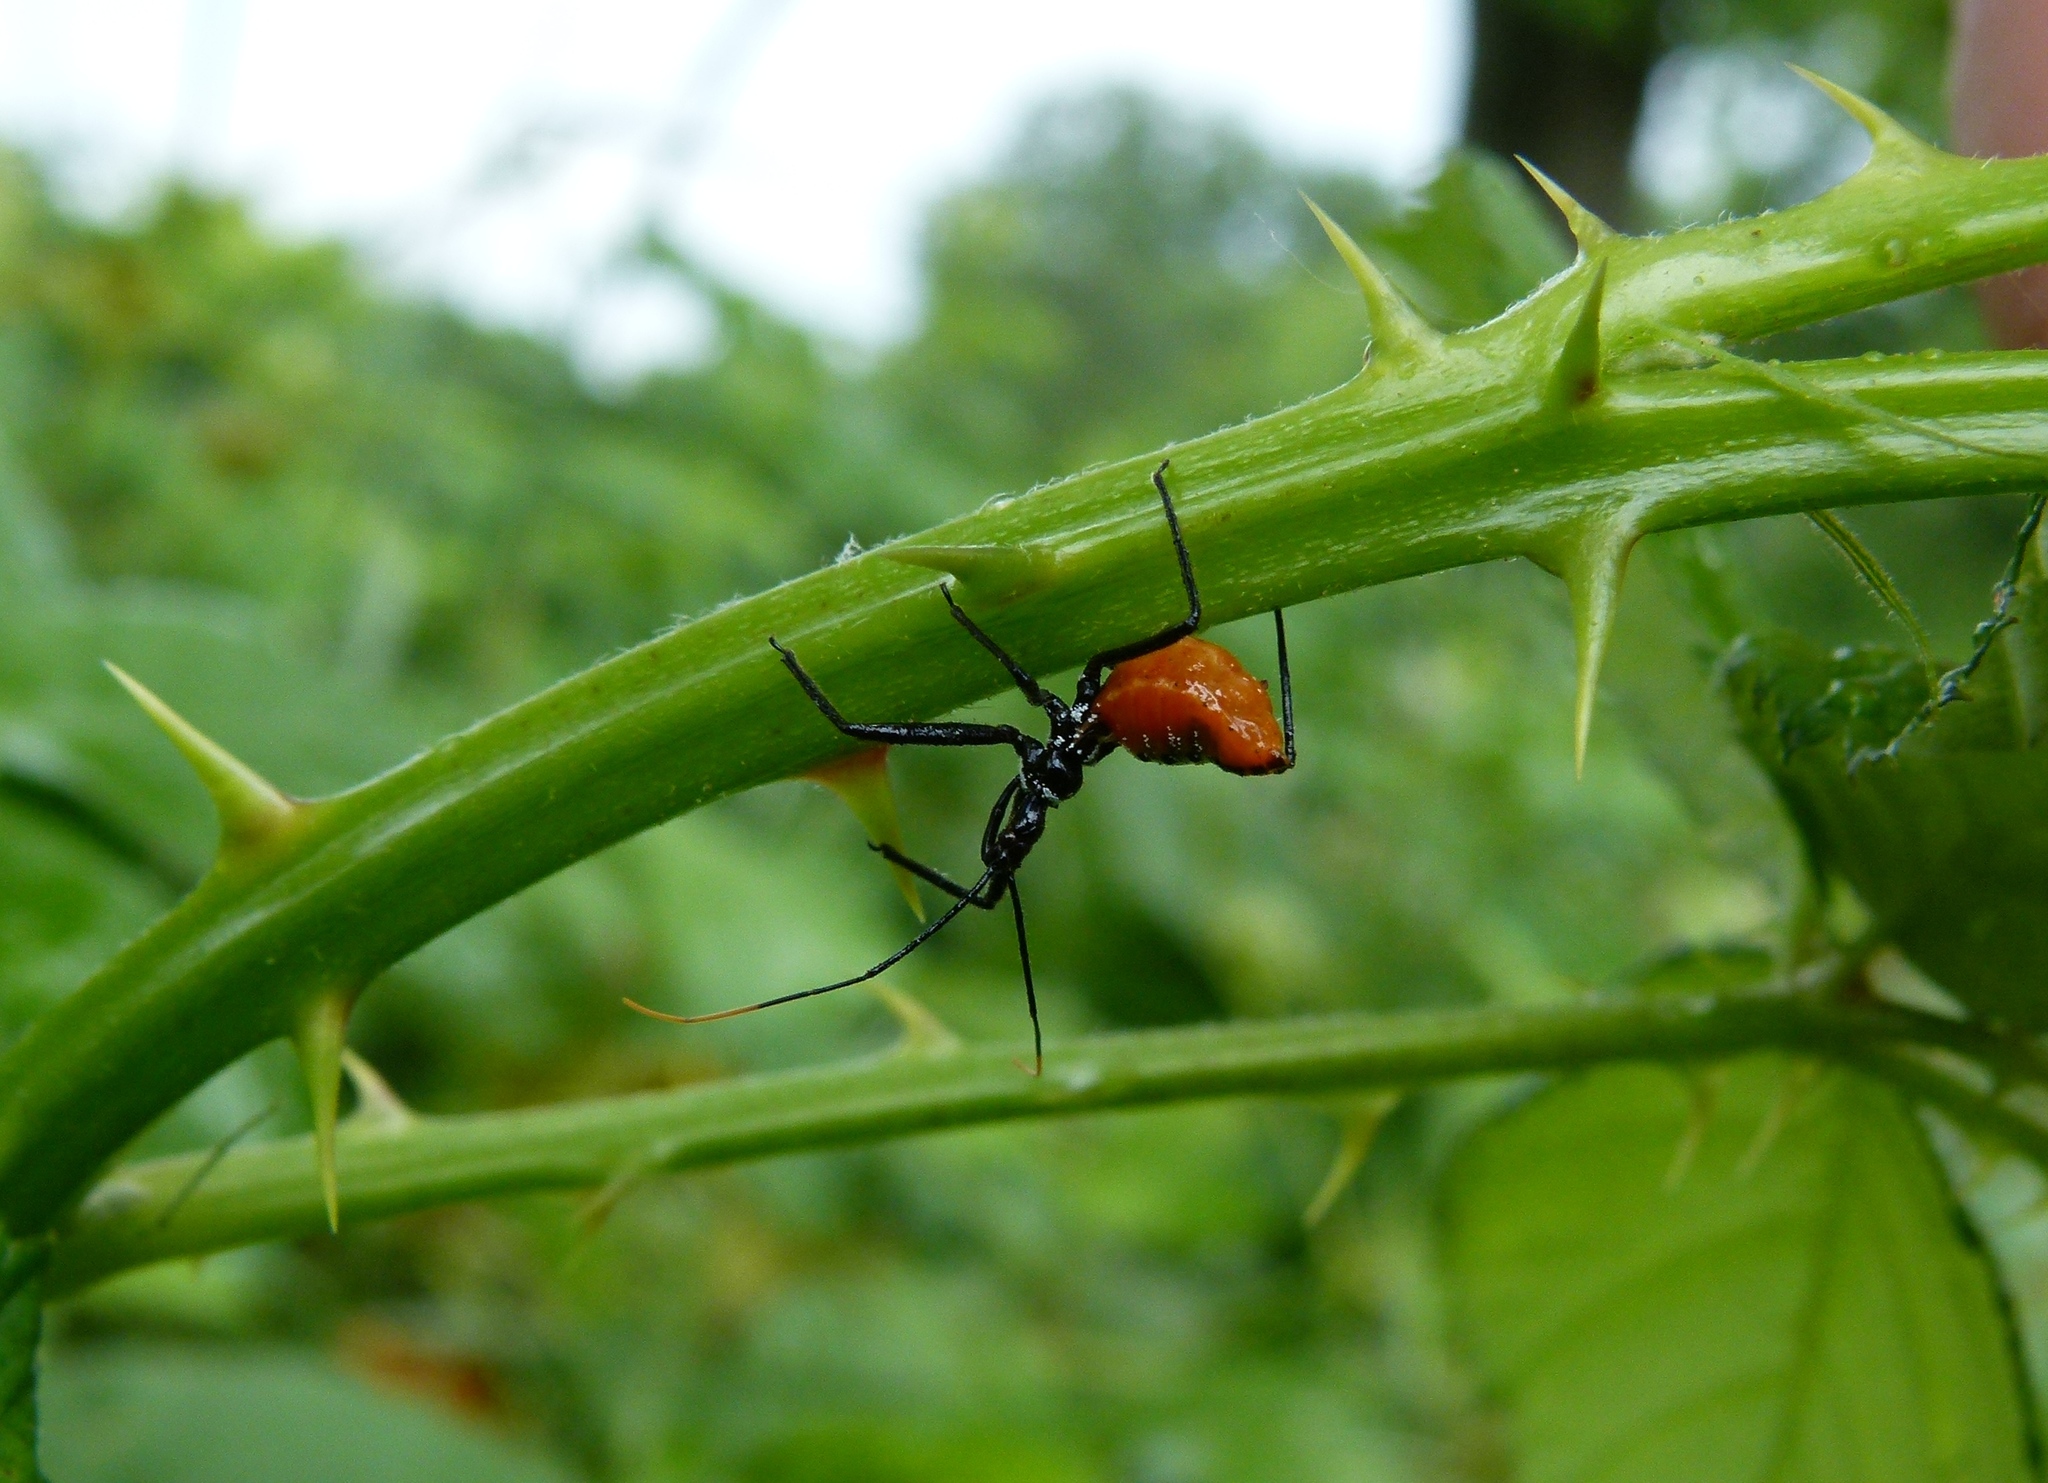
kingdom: Animalia
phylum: Arthropoda
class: Insecta
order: Hemiptera
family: Reduviidae
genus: Arilus
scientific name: Arilus cristatus
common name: North american wheel bug
